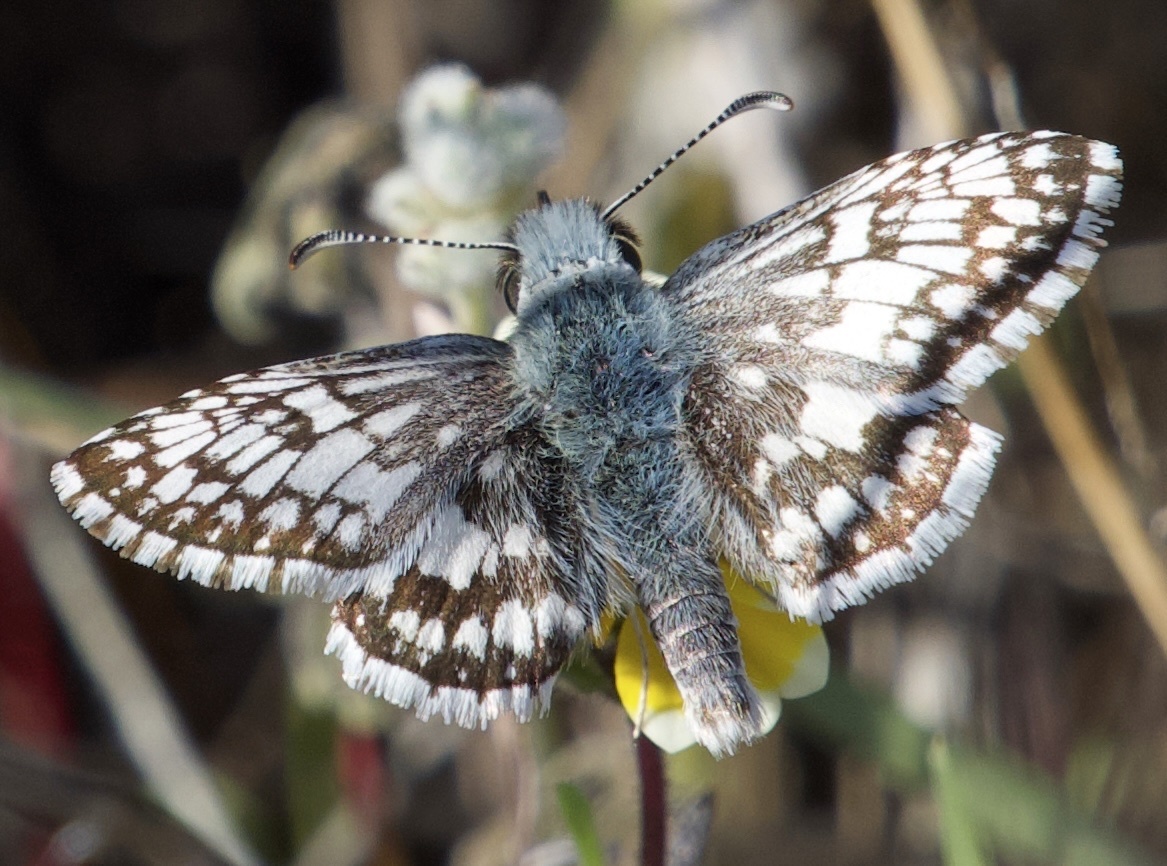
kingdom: Animalia
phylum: Arthropoda
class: Insecta
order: Lepidoptera
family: Hesperiidae
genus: Burnsius
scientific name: Burnsius communis
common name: Common checkered-skipper
